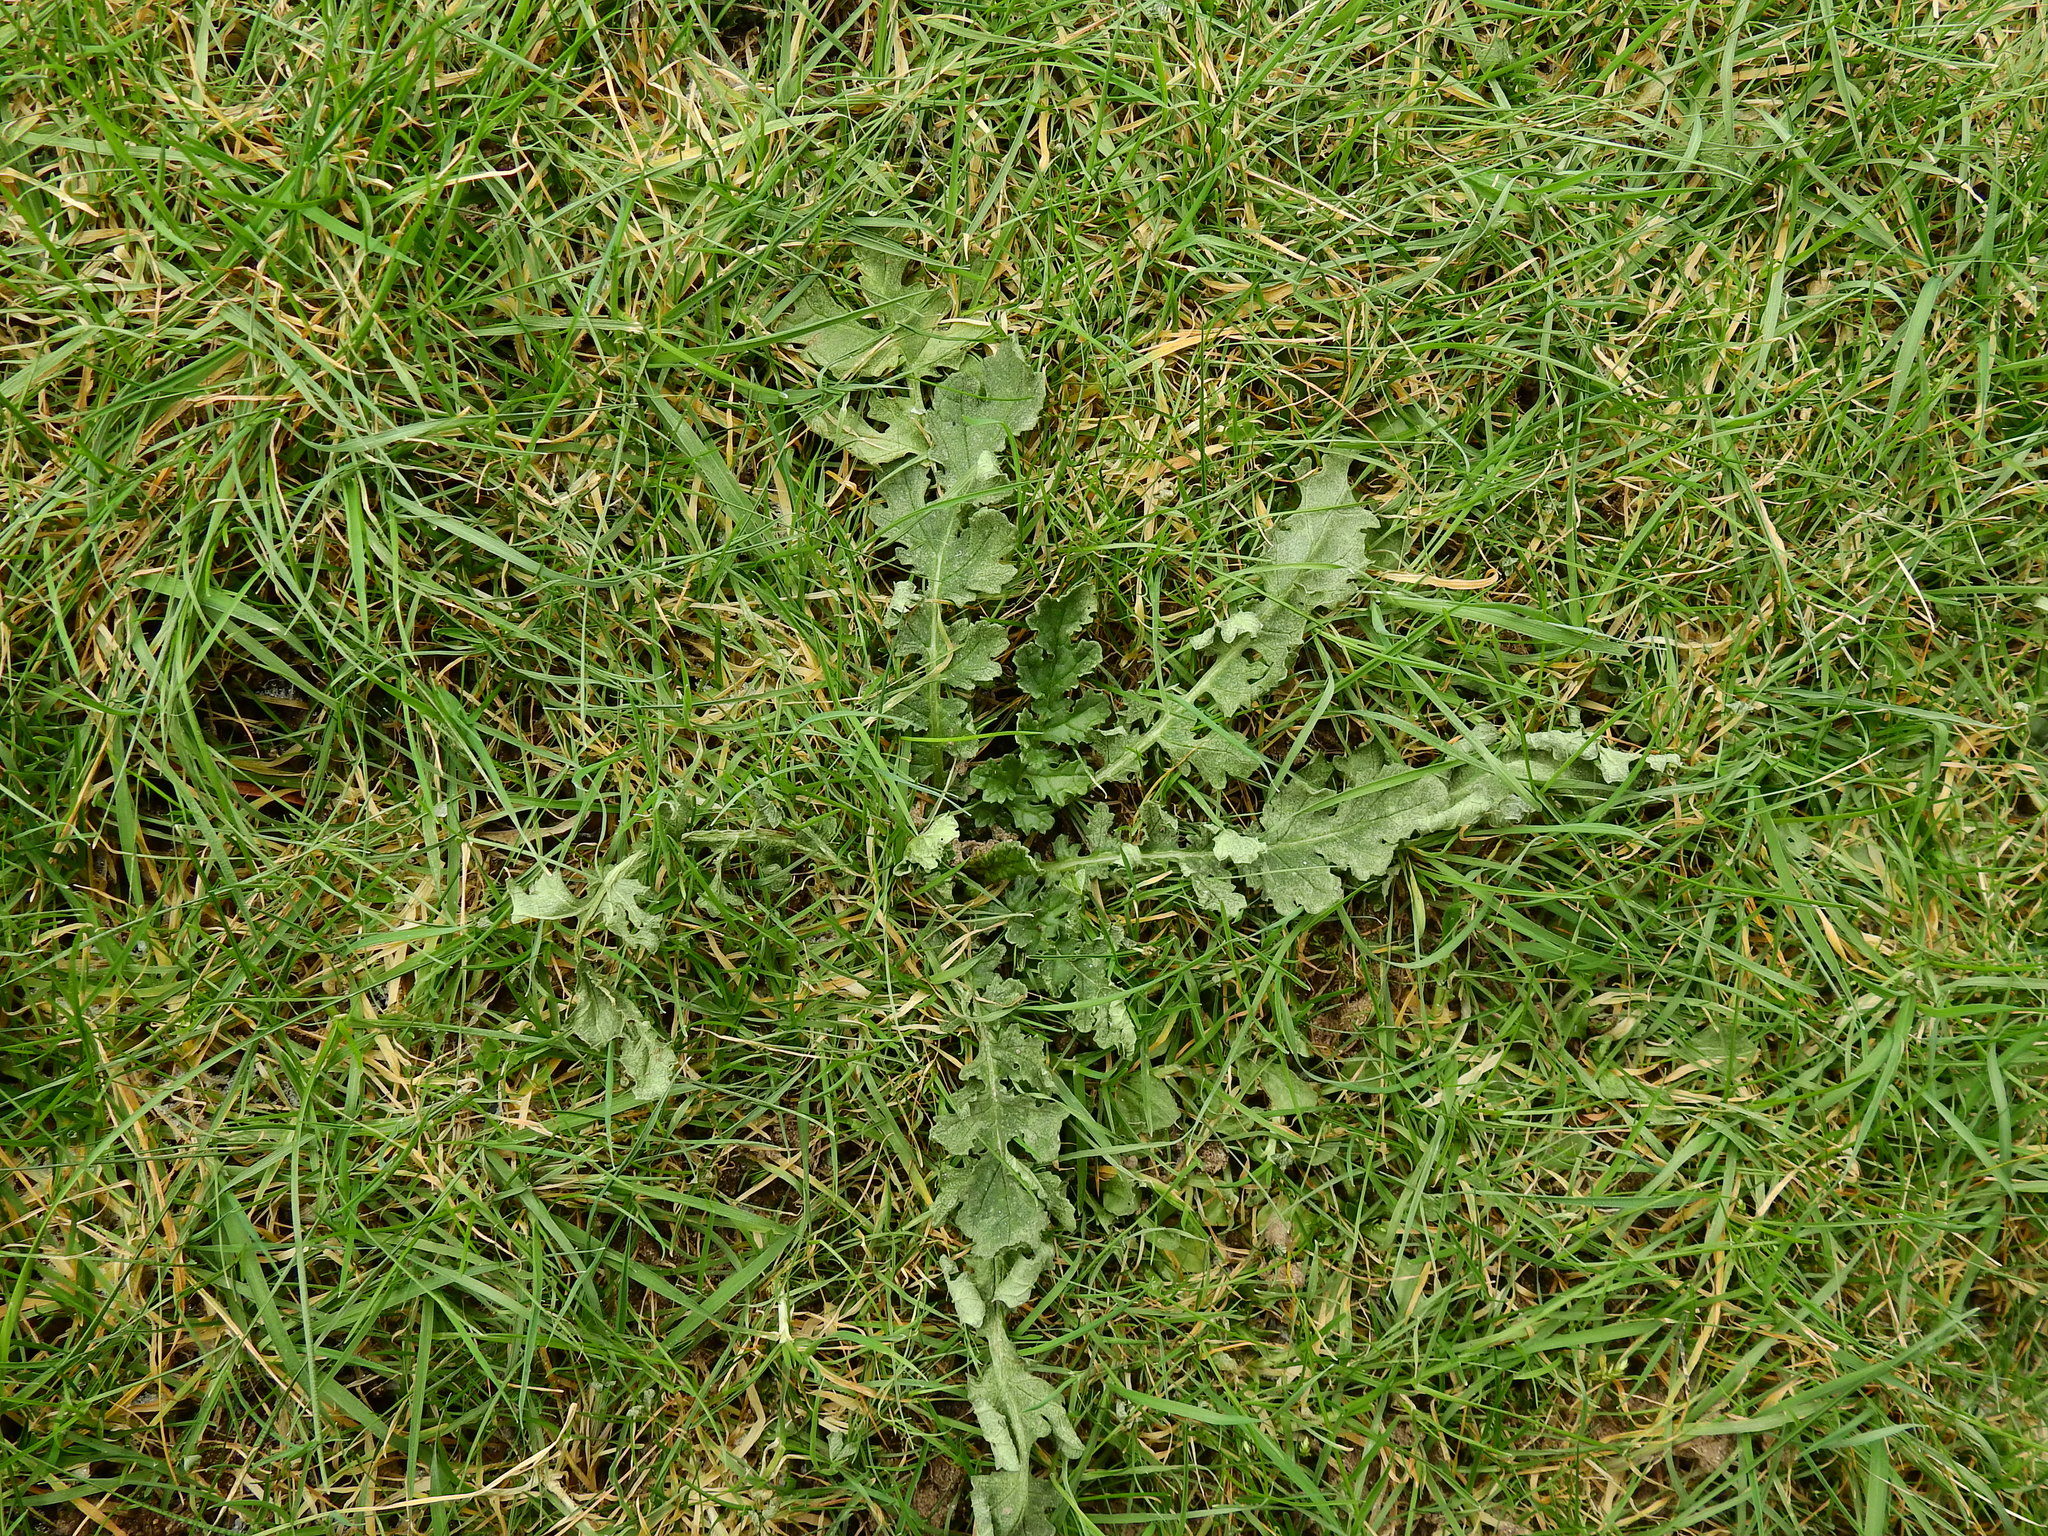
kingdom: Plantae
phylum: Tracheophyta
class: Magnoliopsida
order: Asterales
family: Asteraceae
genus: Jacobaea
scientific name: Jacobaea vulgaris
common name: Stinking willie
